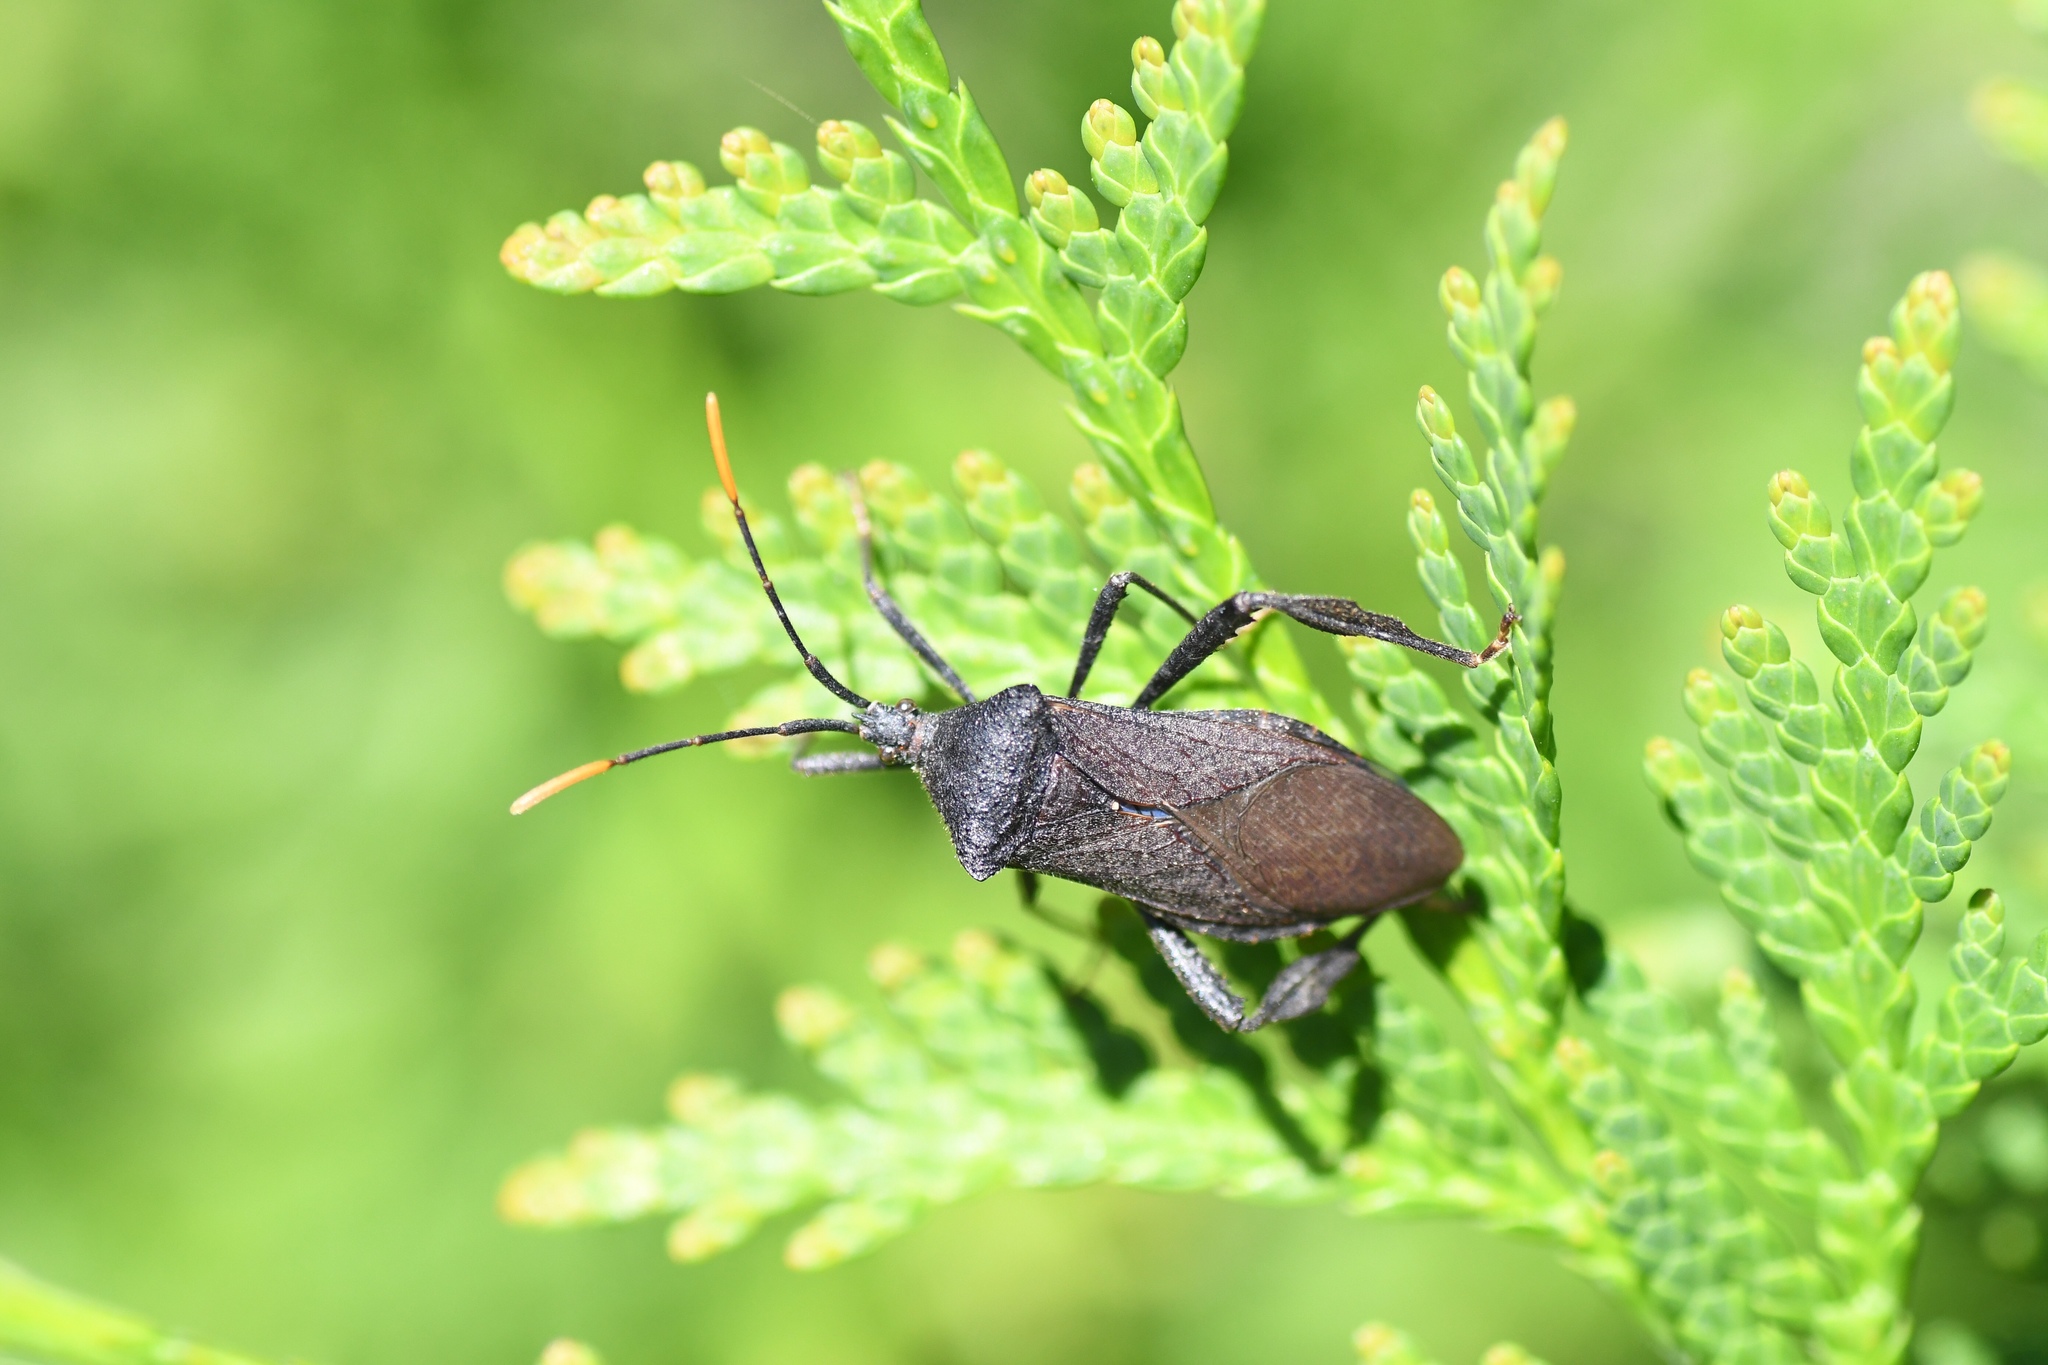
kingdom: Animalia
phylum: Arthropoda
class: Insecta
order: Hemiptera
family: Coreidae
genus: Acanthocephala
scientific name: Acanthocephala terminalis
